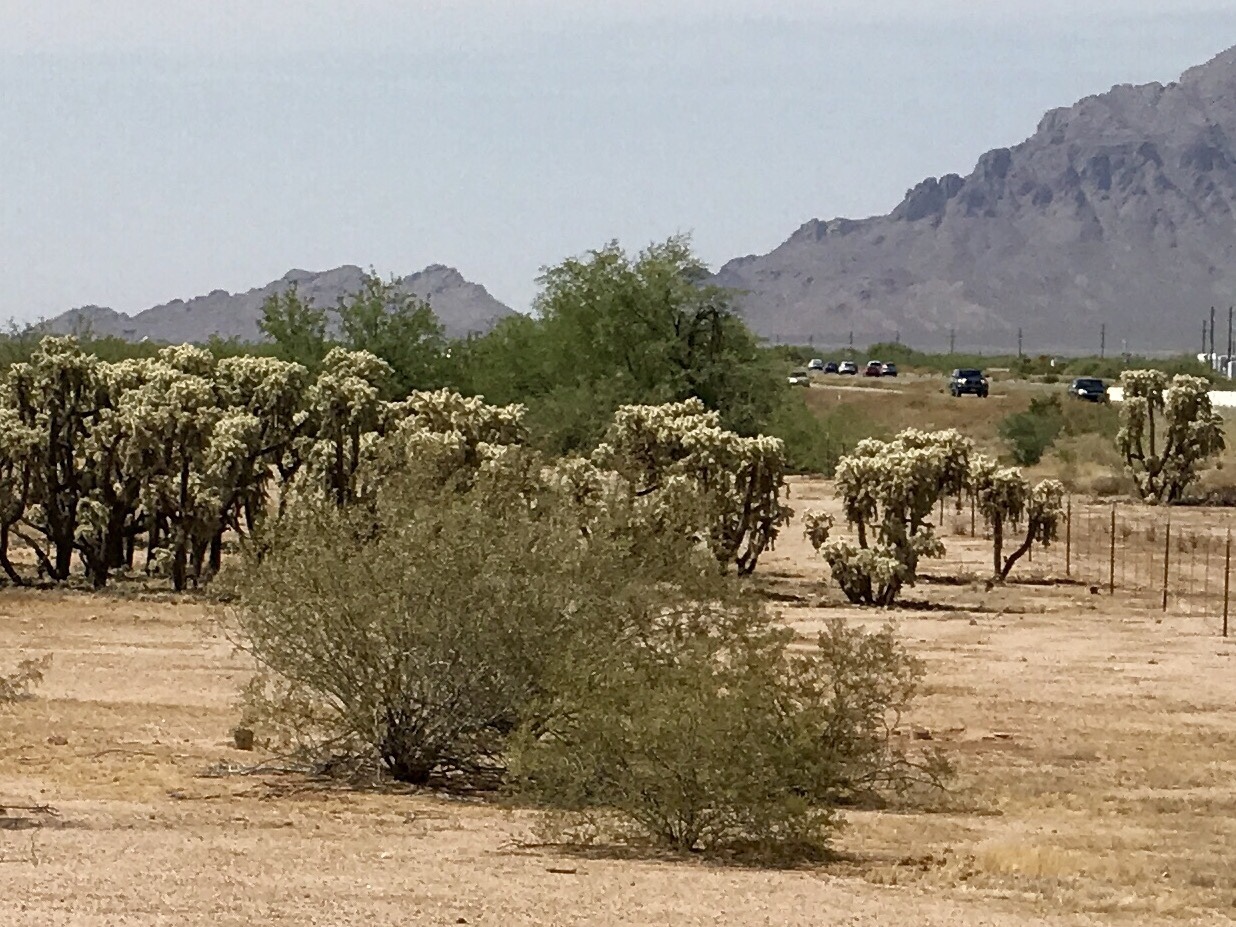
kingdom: Plantae
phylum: Tracheophyta
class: Magnoliopsida
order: Zygophyllales
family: Zygophyllaceae
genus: Larrea
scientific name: Larrea tridentata
